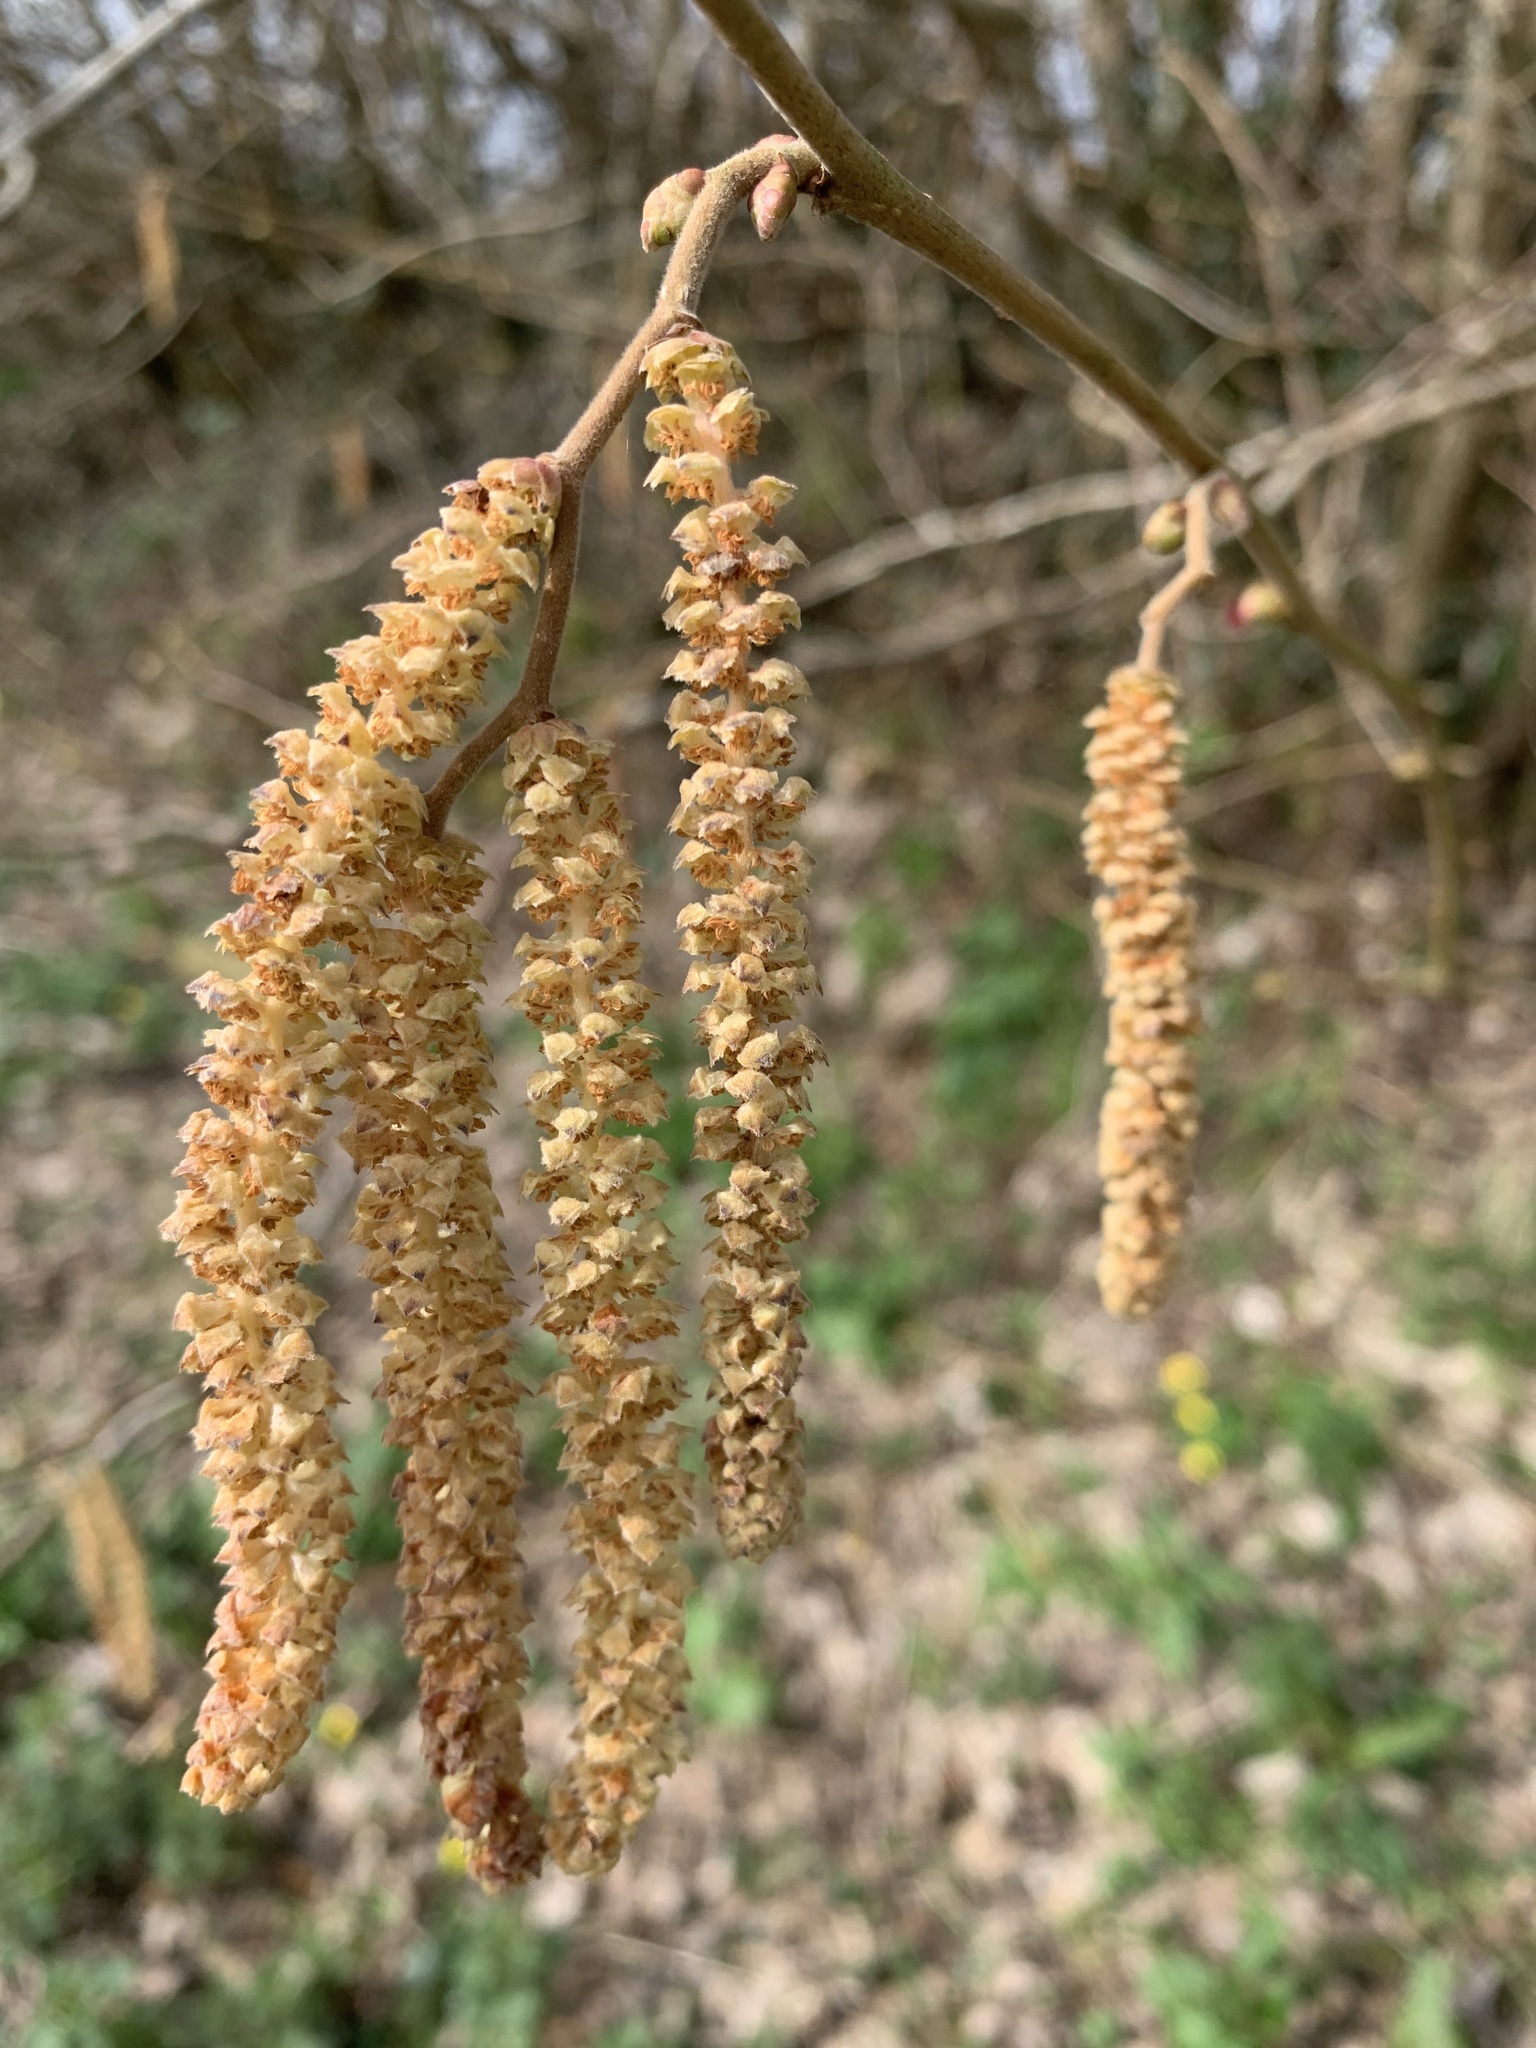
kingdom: Plantae
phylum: Tracheophyta
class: Magnoliopsida
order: Fagales
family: Betulaceae
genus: Corylus
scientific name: Corylus avellana
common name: European hazel
